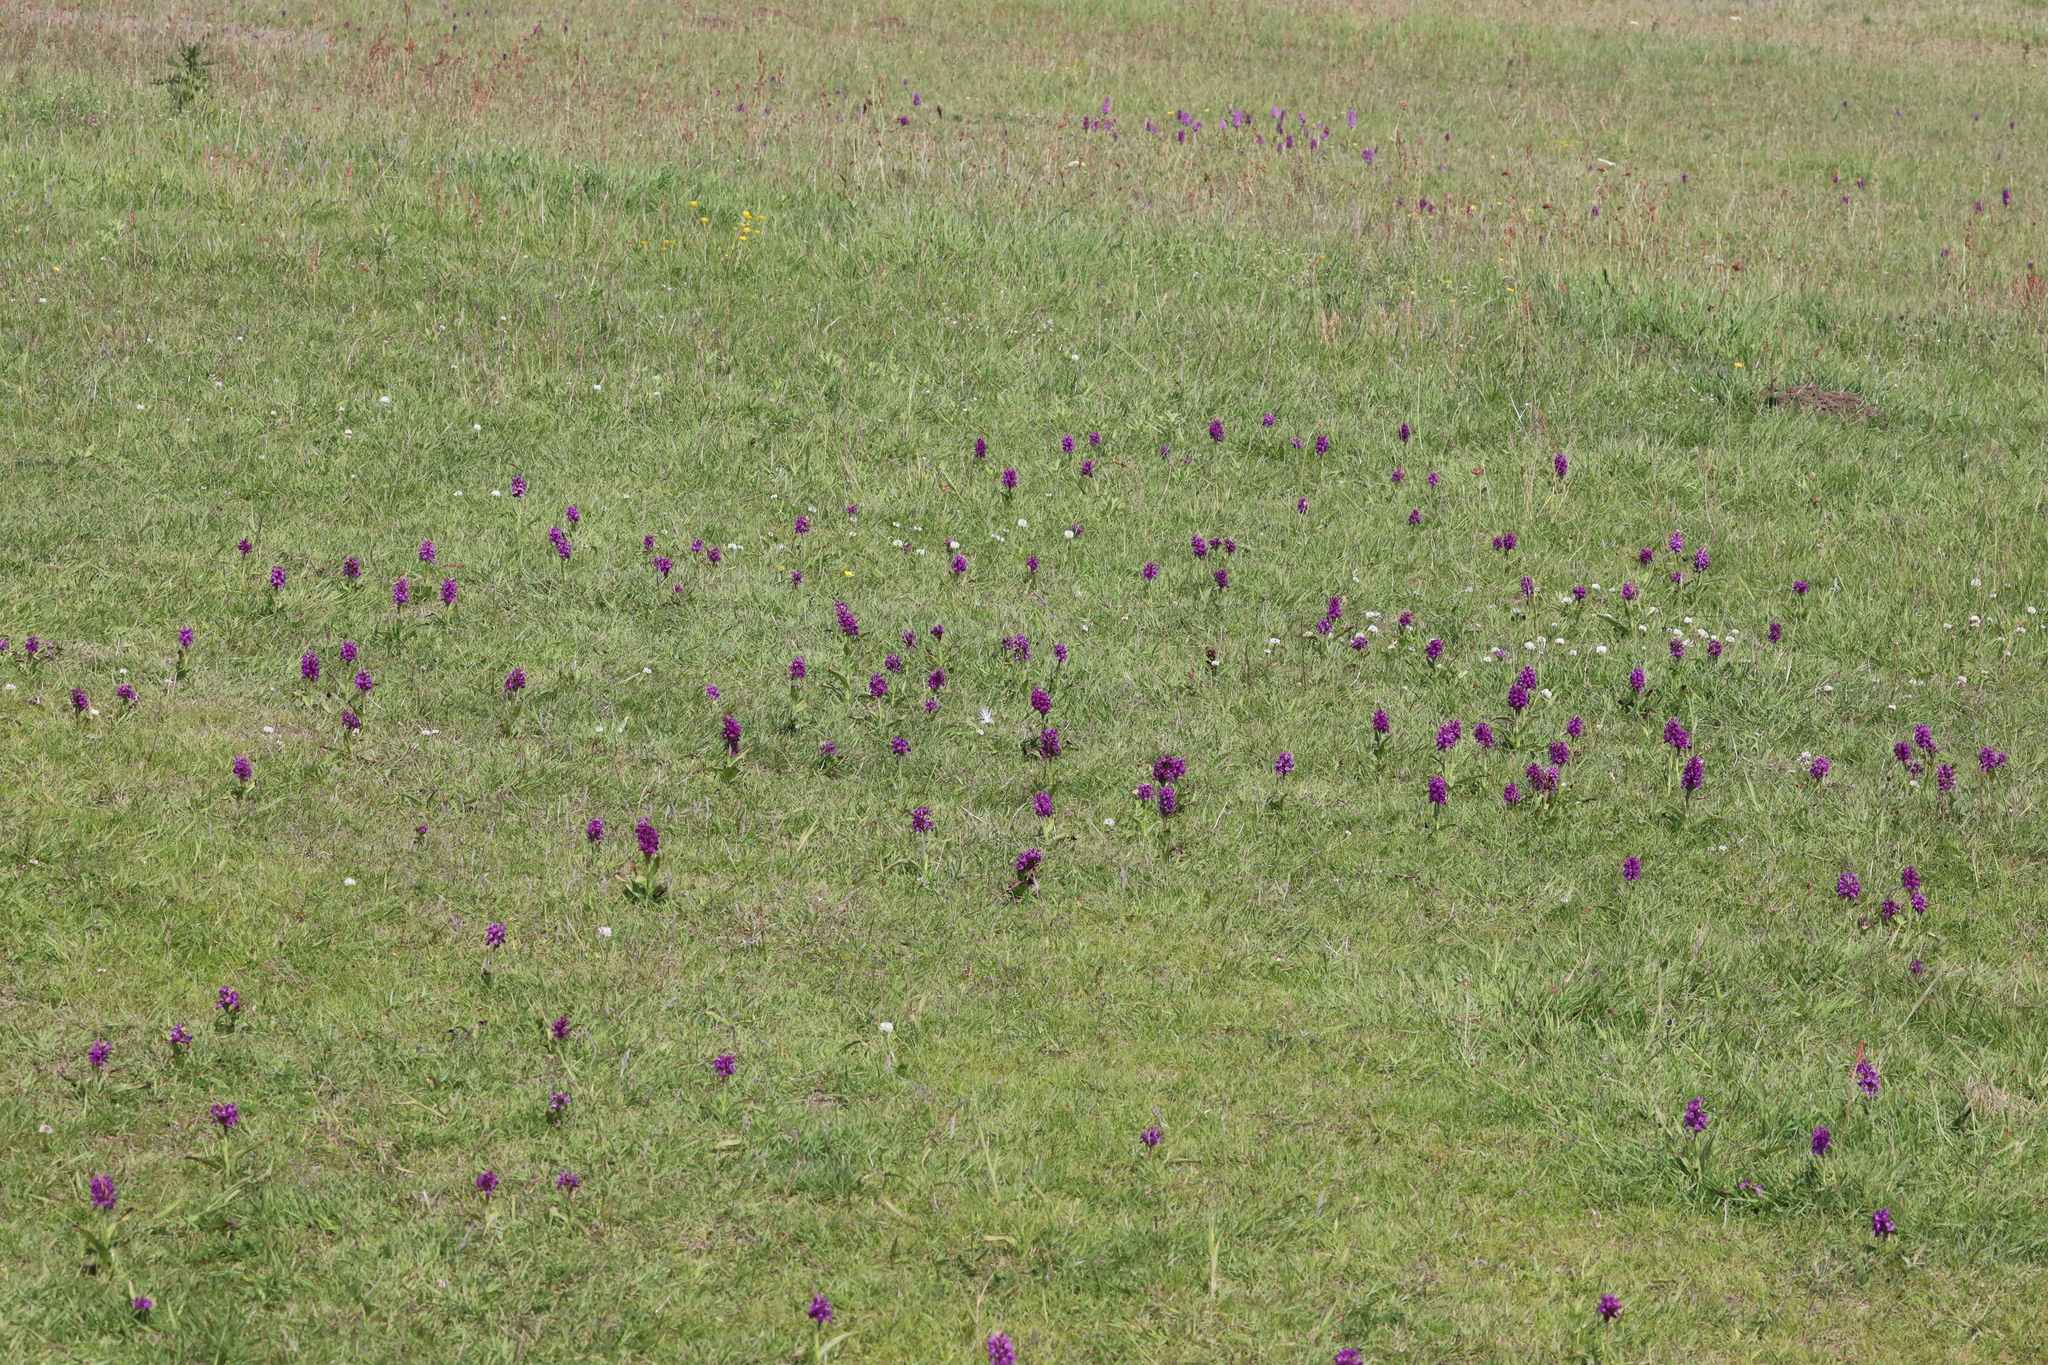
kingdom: Plantae
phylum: Tracheophyta
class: Liliopsida
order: Asparagales
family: Orchidaceae
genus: Dactylorhiza
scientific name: Dactylorhiza majalis
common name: Marsh orchid
